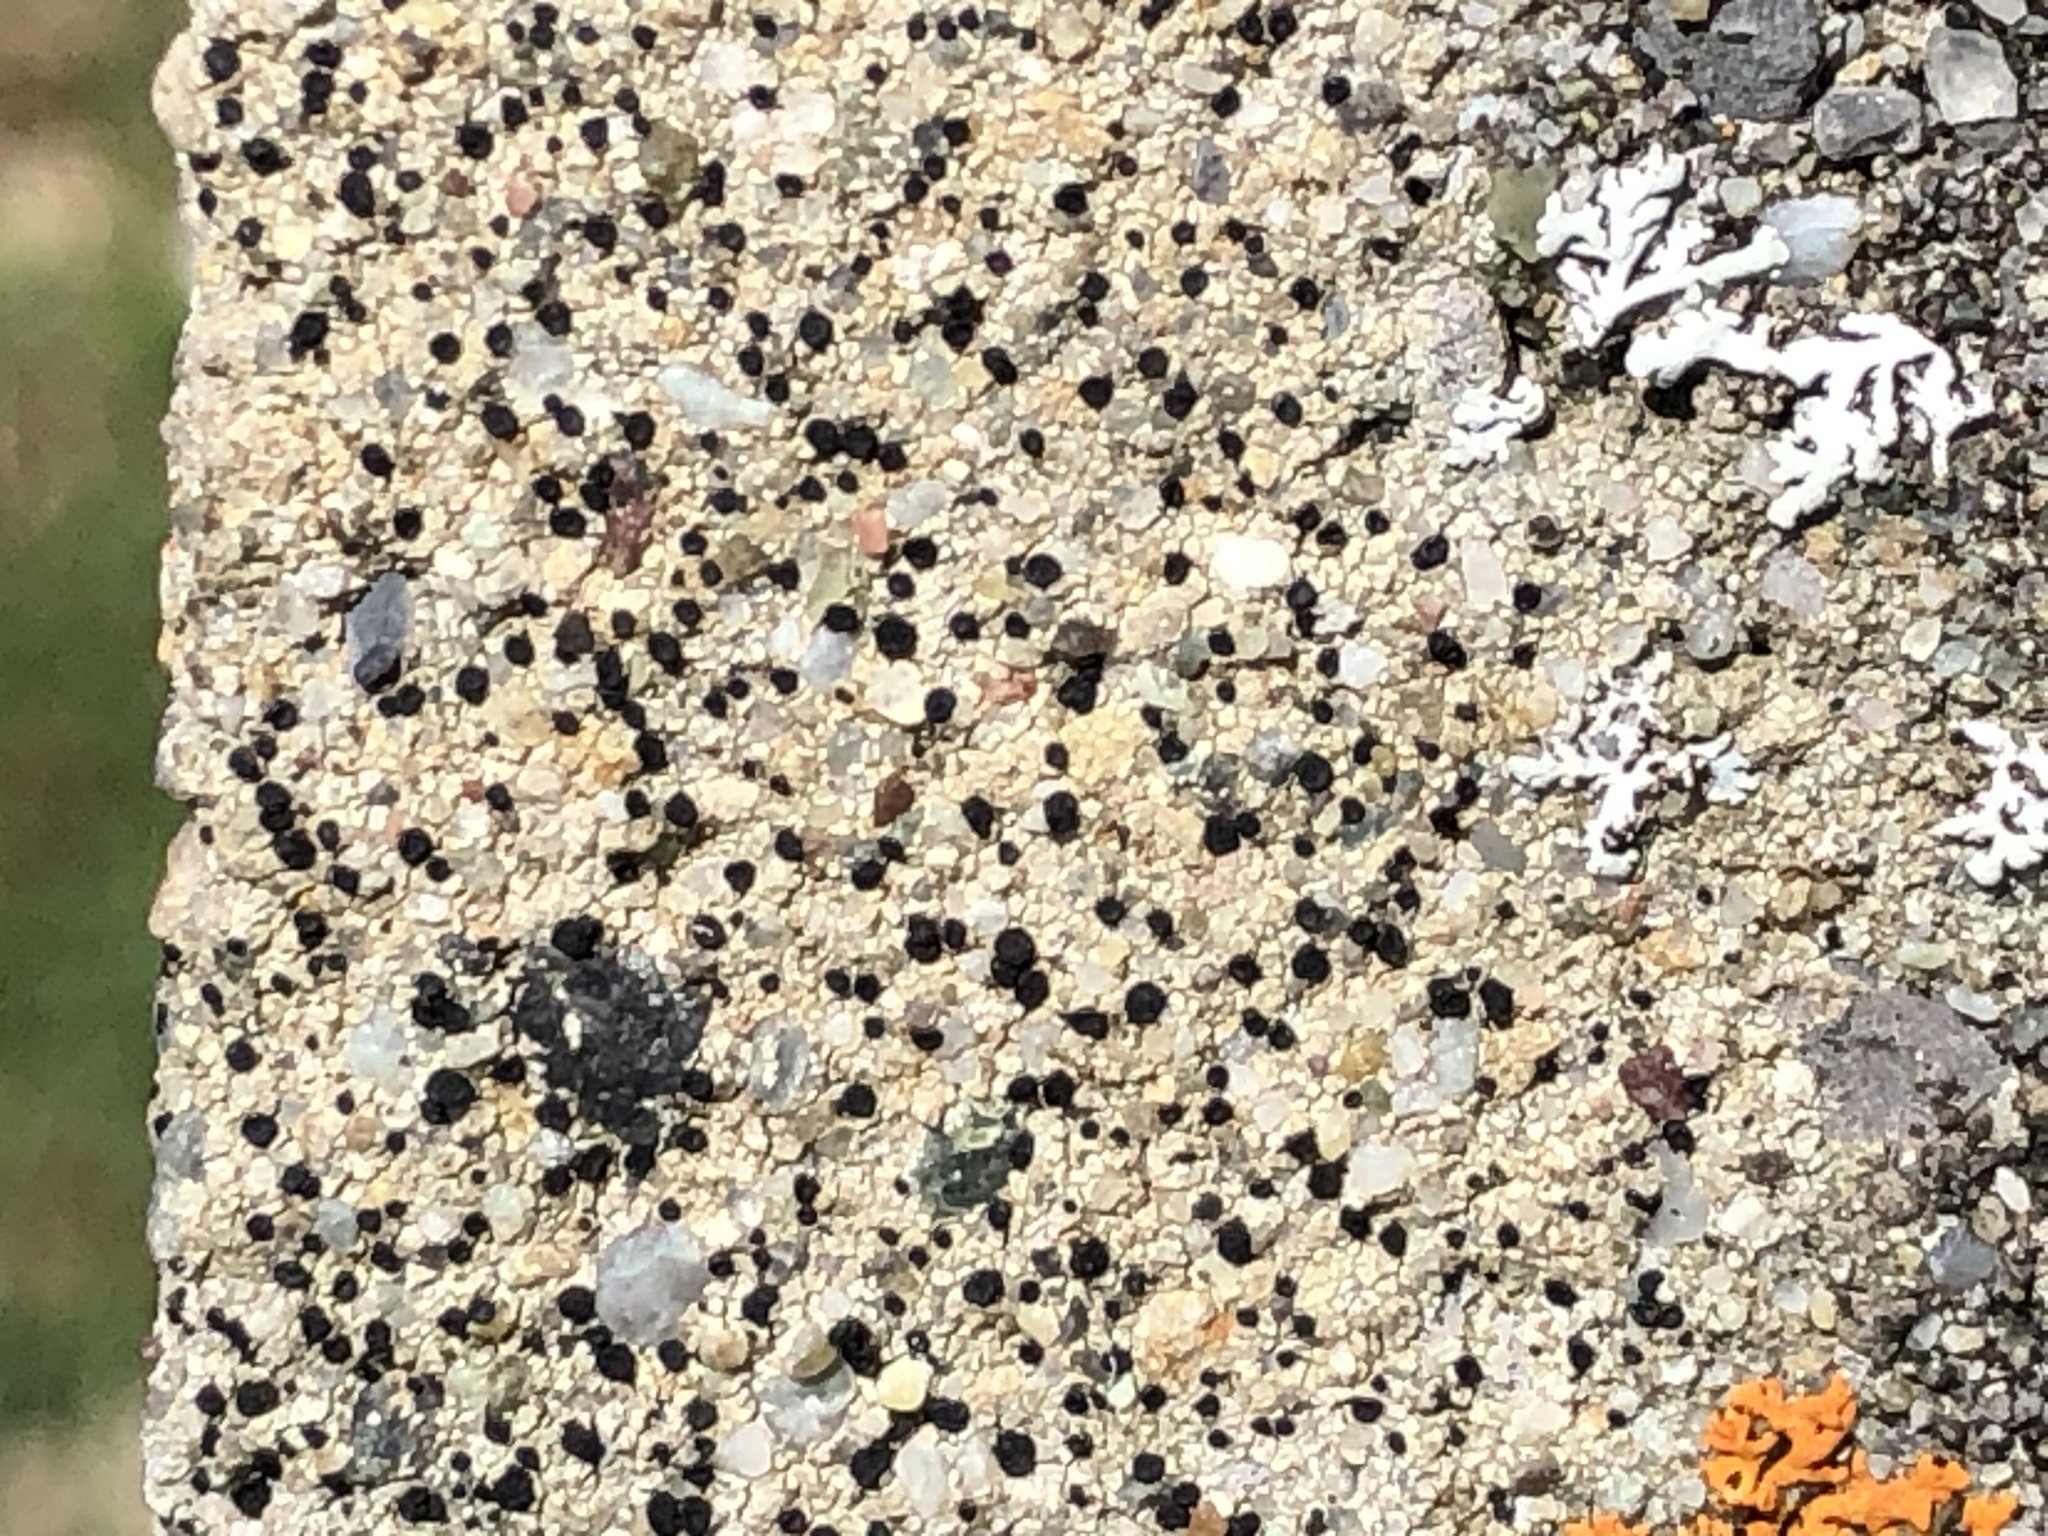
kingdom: Fungi
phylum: Ascomycota
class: Lecanoromycetes
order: Lecanorales
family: Lecanoraceae
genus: Lecidella
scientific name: Lecidella stigmatea
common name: Limestone disc lichen
